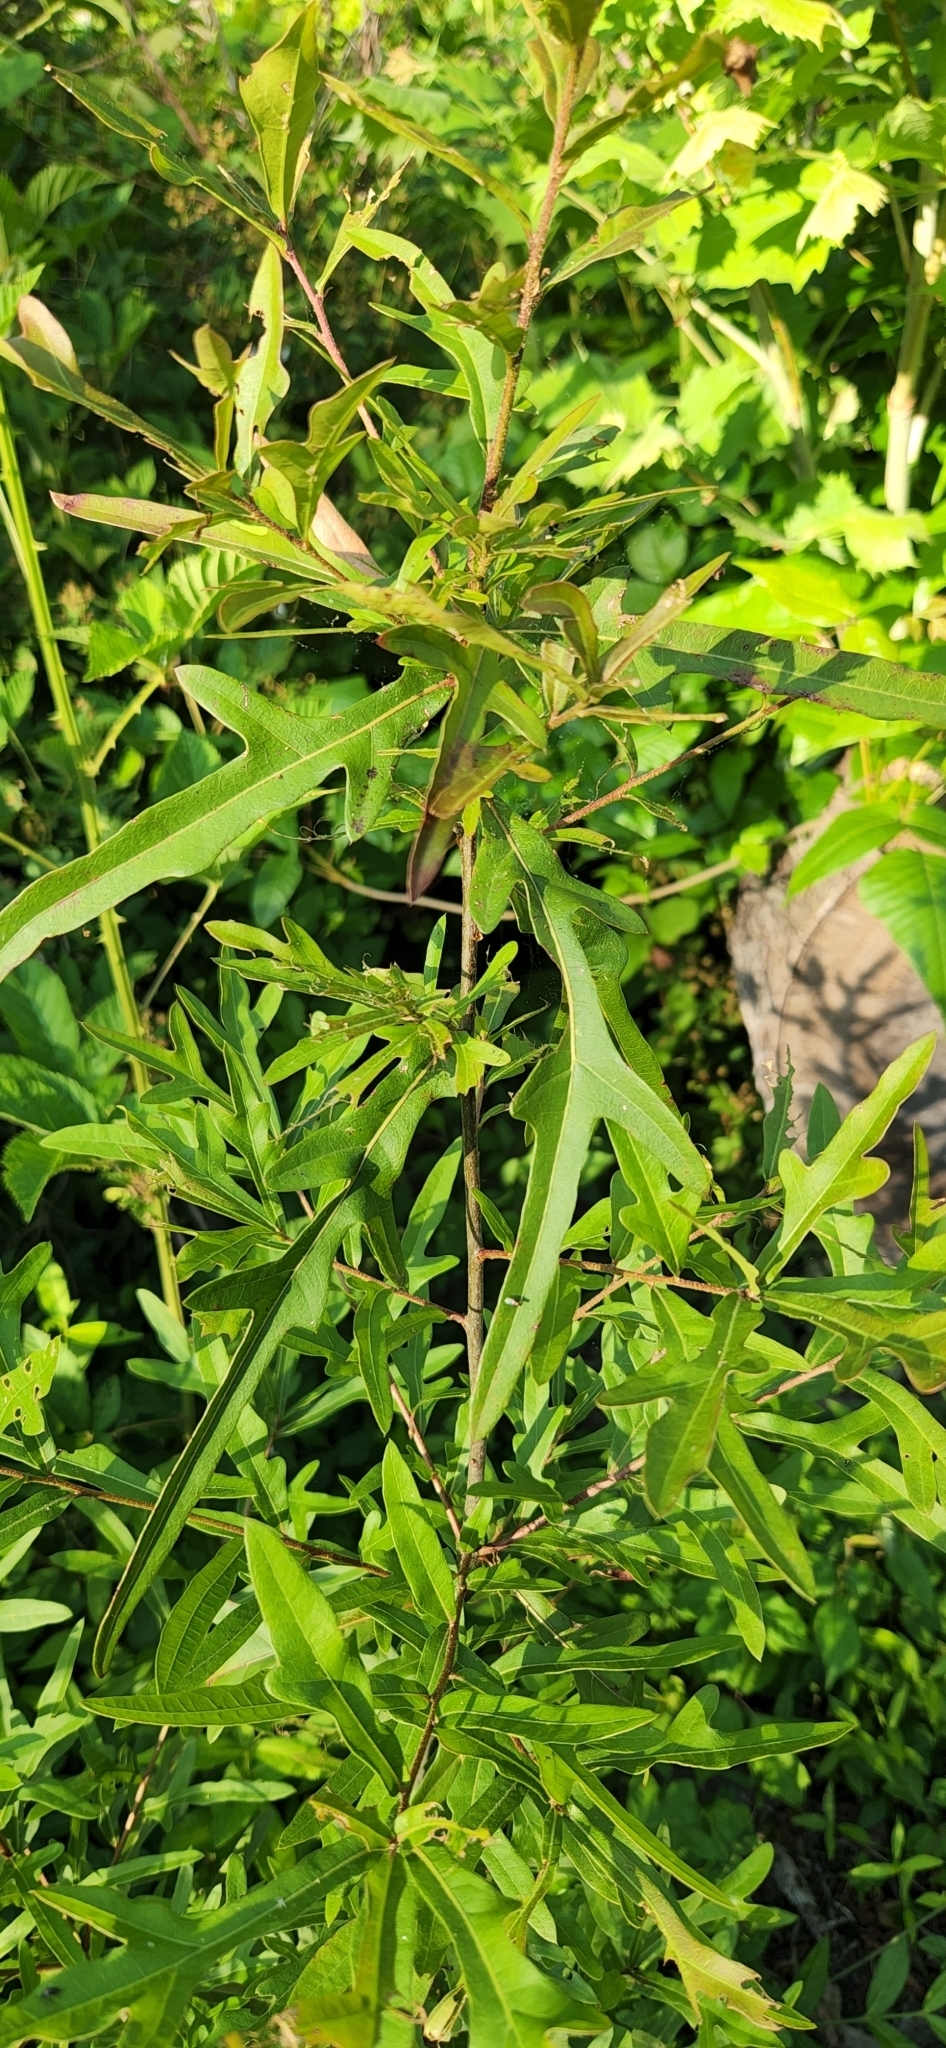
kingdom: Plantae
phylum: Tracheophyta
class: Magnoliopsida
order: Fagales
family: Fagaceae
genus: Quercus
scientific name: Quercus nigra
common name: Water oak
